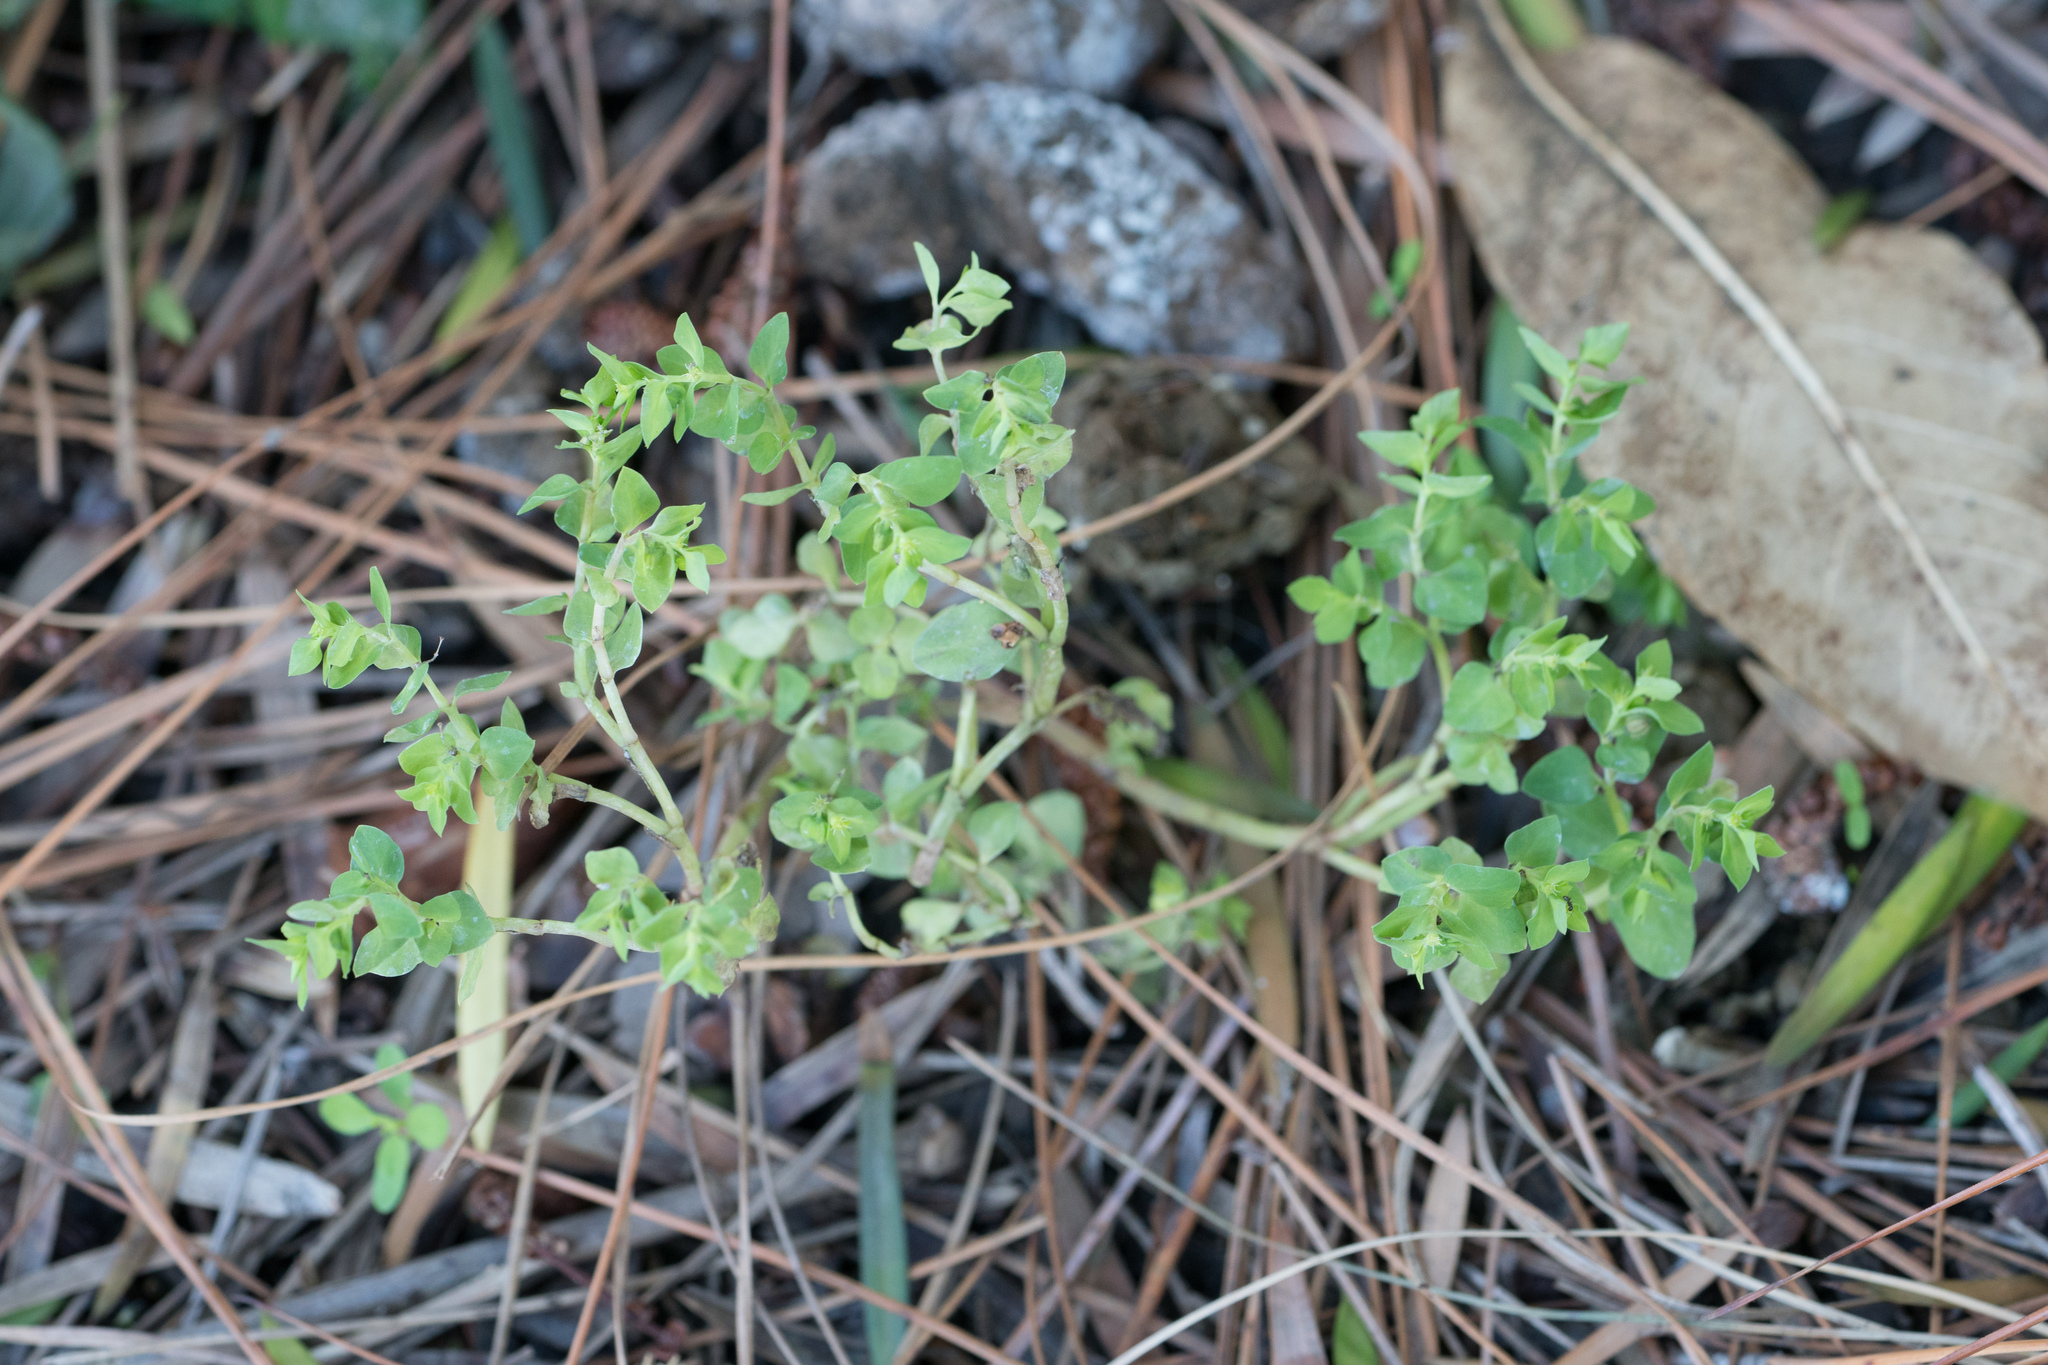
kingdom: Plantae
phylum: Tracheophyta
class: Magnoliopsida
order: Malpighiales
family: Euphorbiaceae
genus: Euphorbia
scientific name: Euphorbia peplus
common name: Petty spurge
